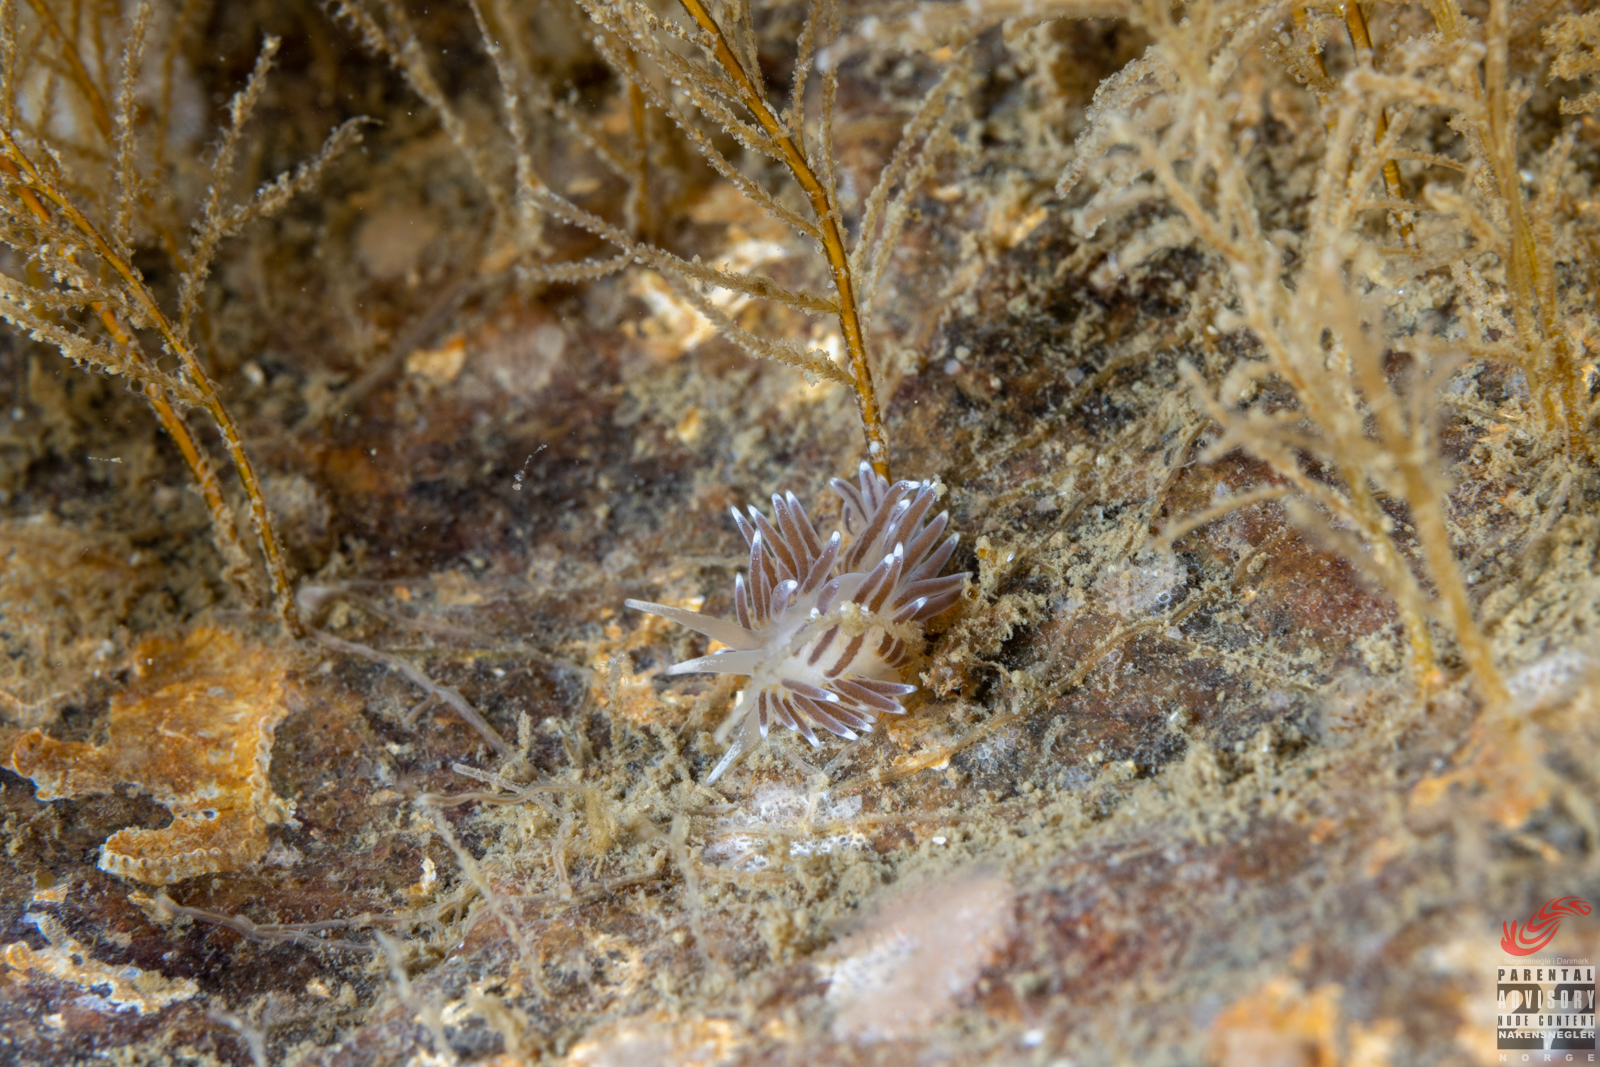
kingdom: Animalia
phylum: Mollusca
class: Gastropoda
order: Nudibranchia
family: Cuthonellidae
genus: Cuthonella
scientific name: Cuthonella concinna
